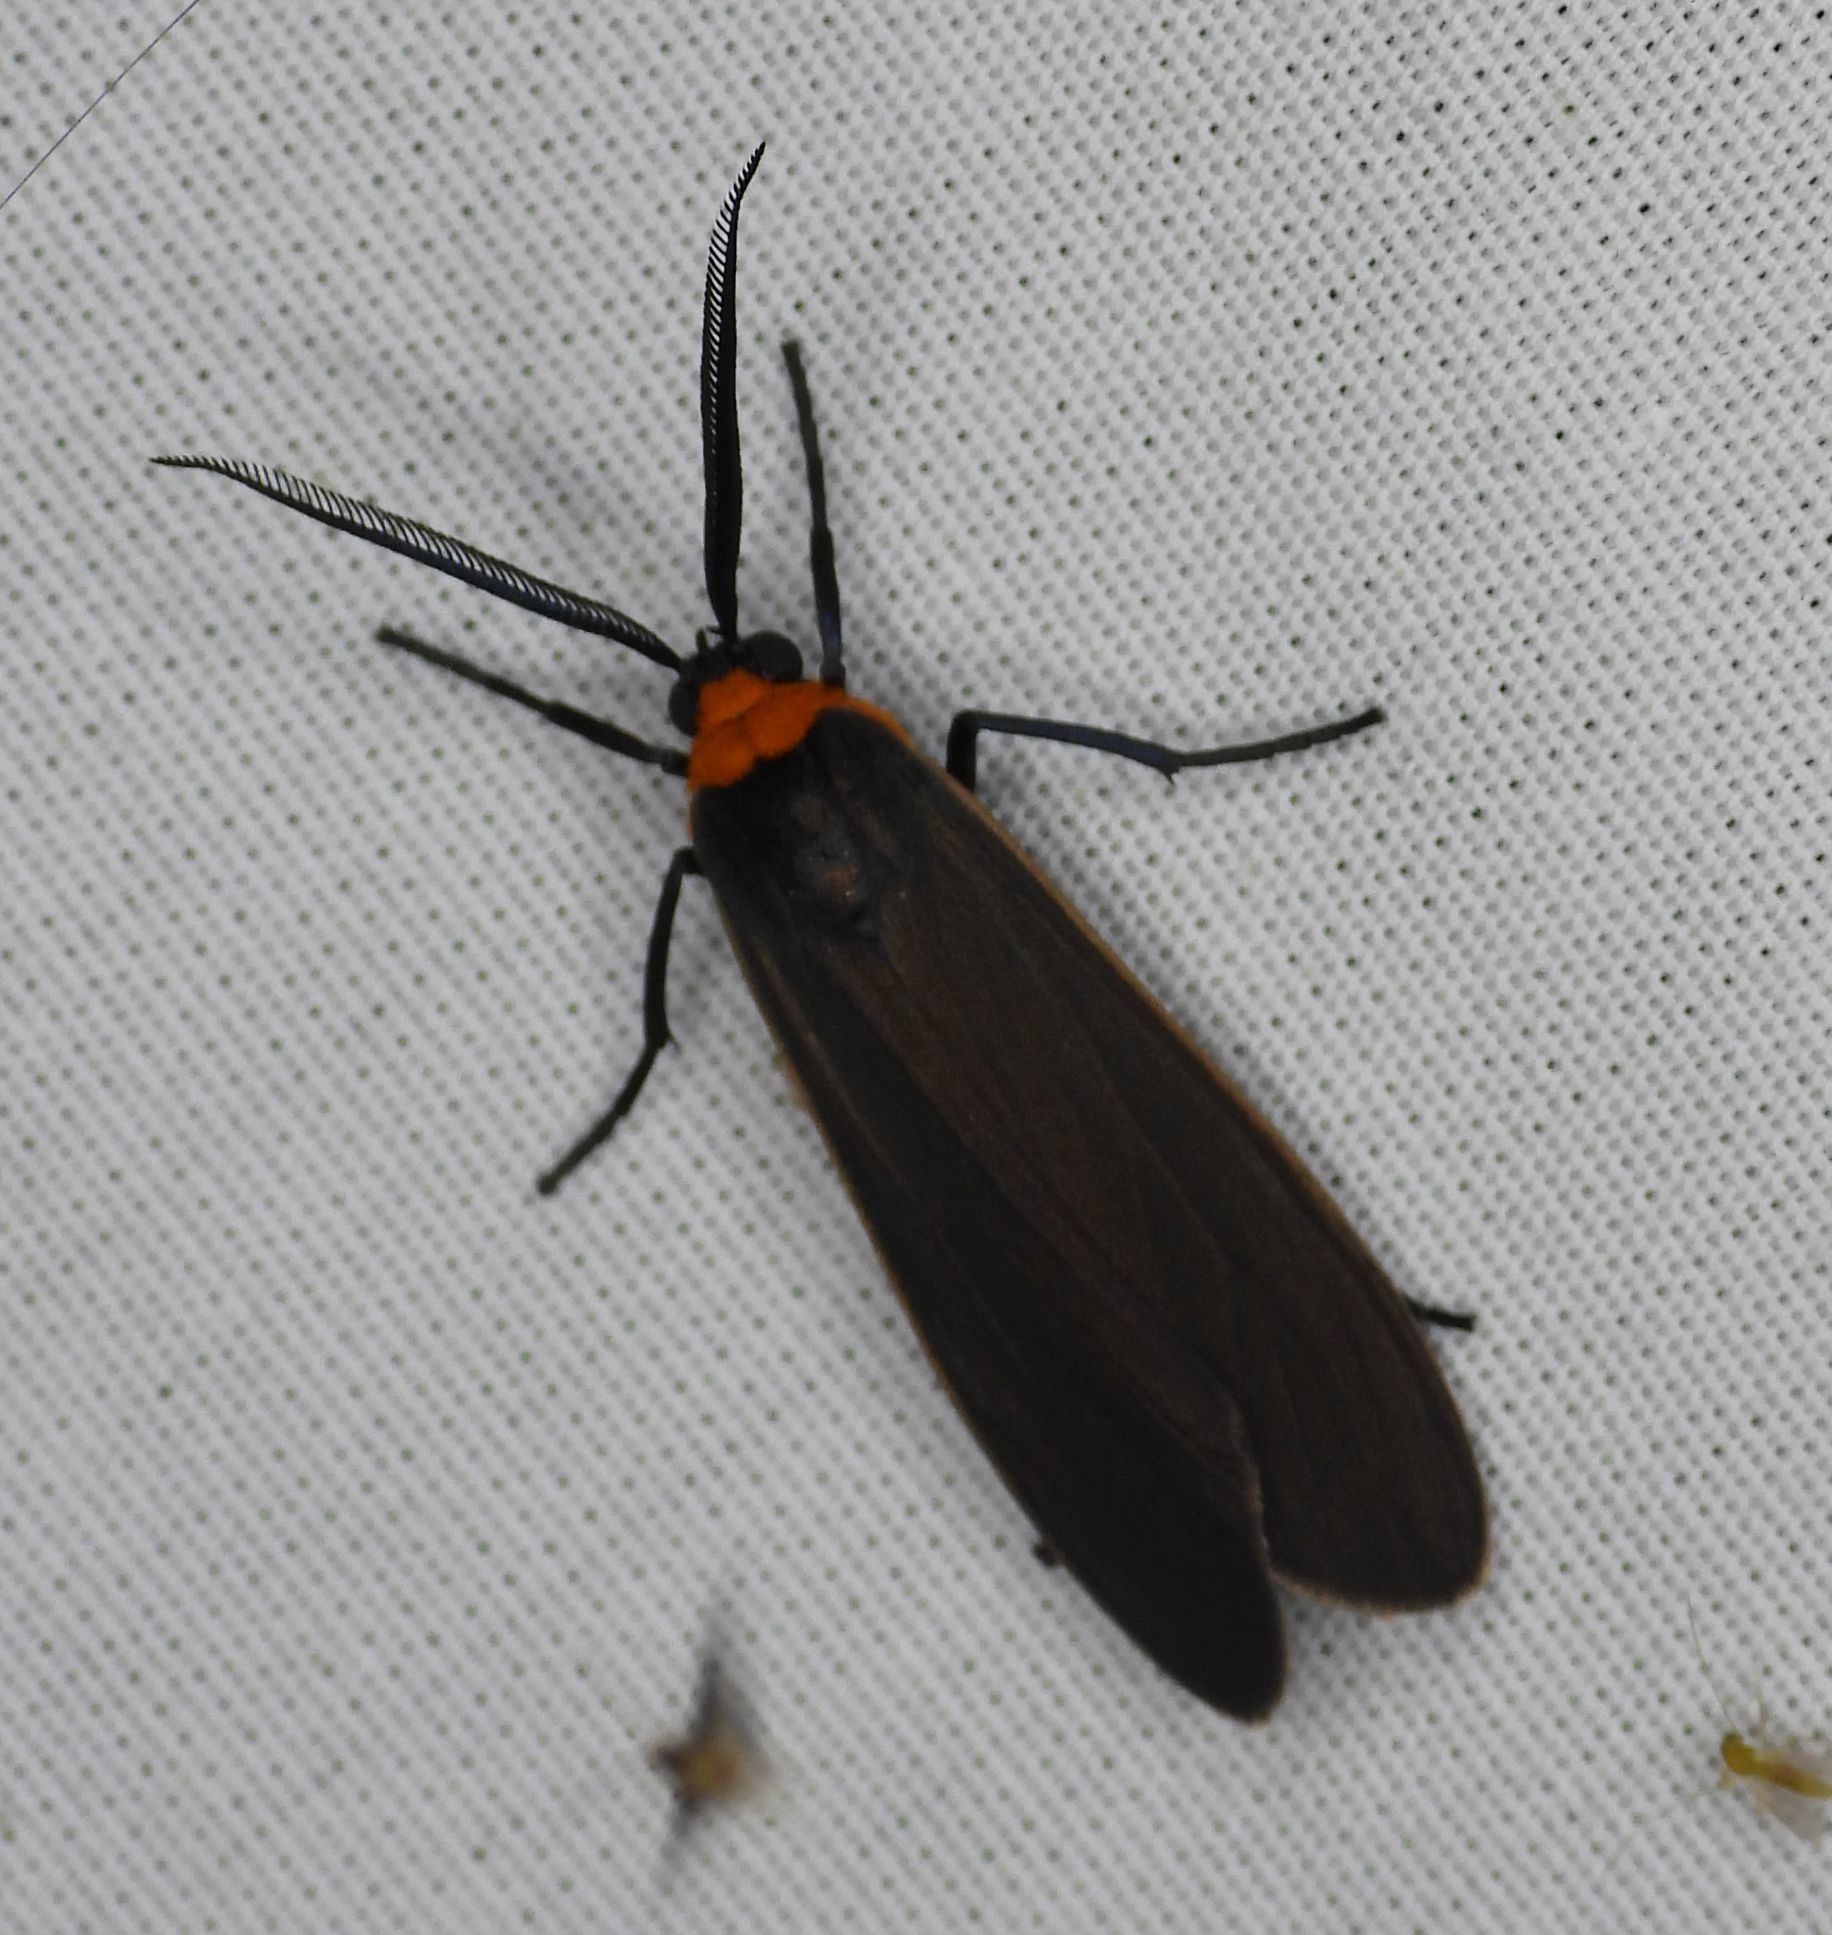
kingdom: Animalia
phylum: Arthropoda
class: Insecta
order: Lepidoptera
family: Erebidae
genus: Cisseps
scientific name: Cisseps fulvicollis
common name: Yellow-collared scape moth
